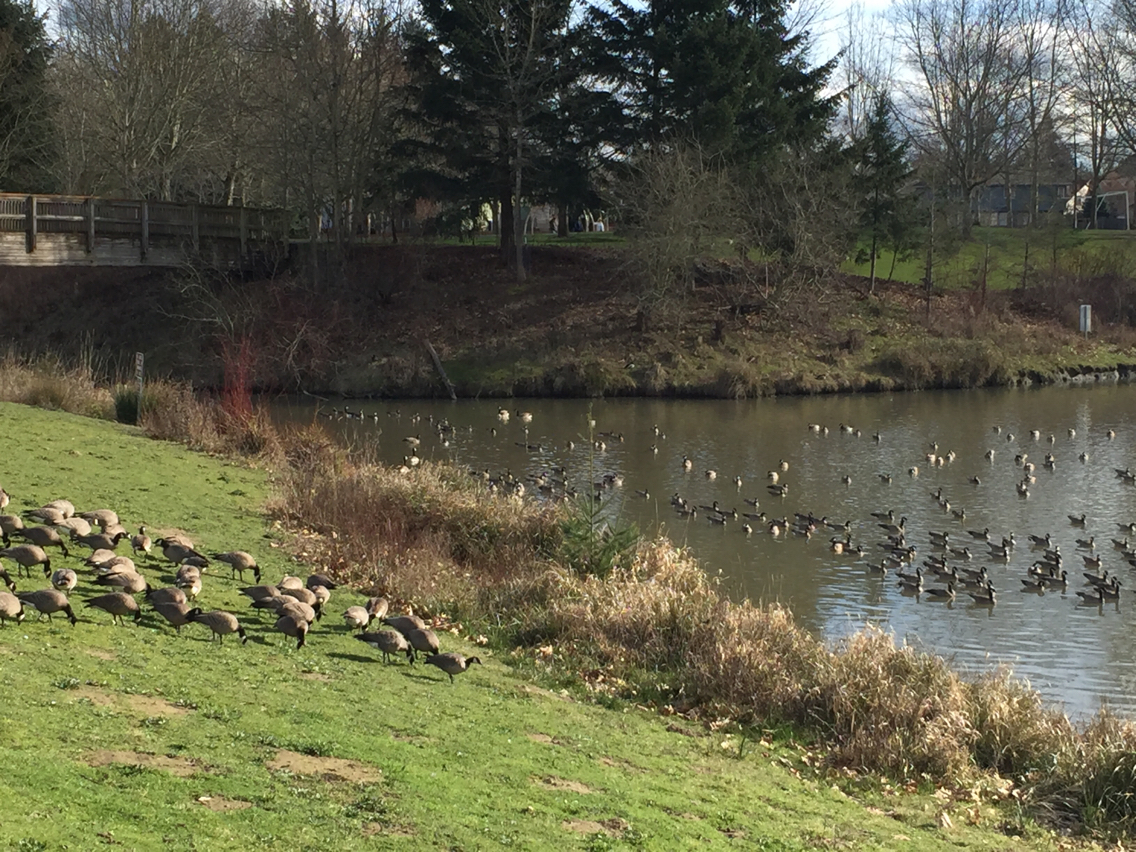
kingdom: Animalia
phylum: Chordata
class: Aves
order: Anseriformes
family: Anatidae
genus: Branta
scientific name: Branta hutchinsii
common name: Cackling goose
